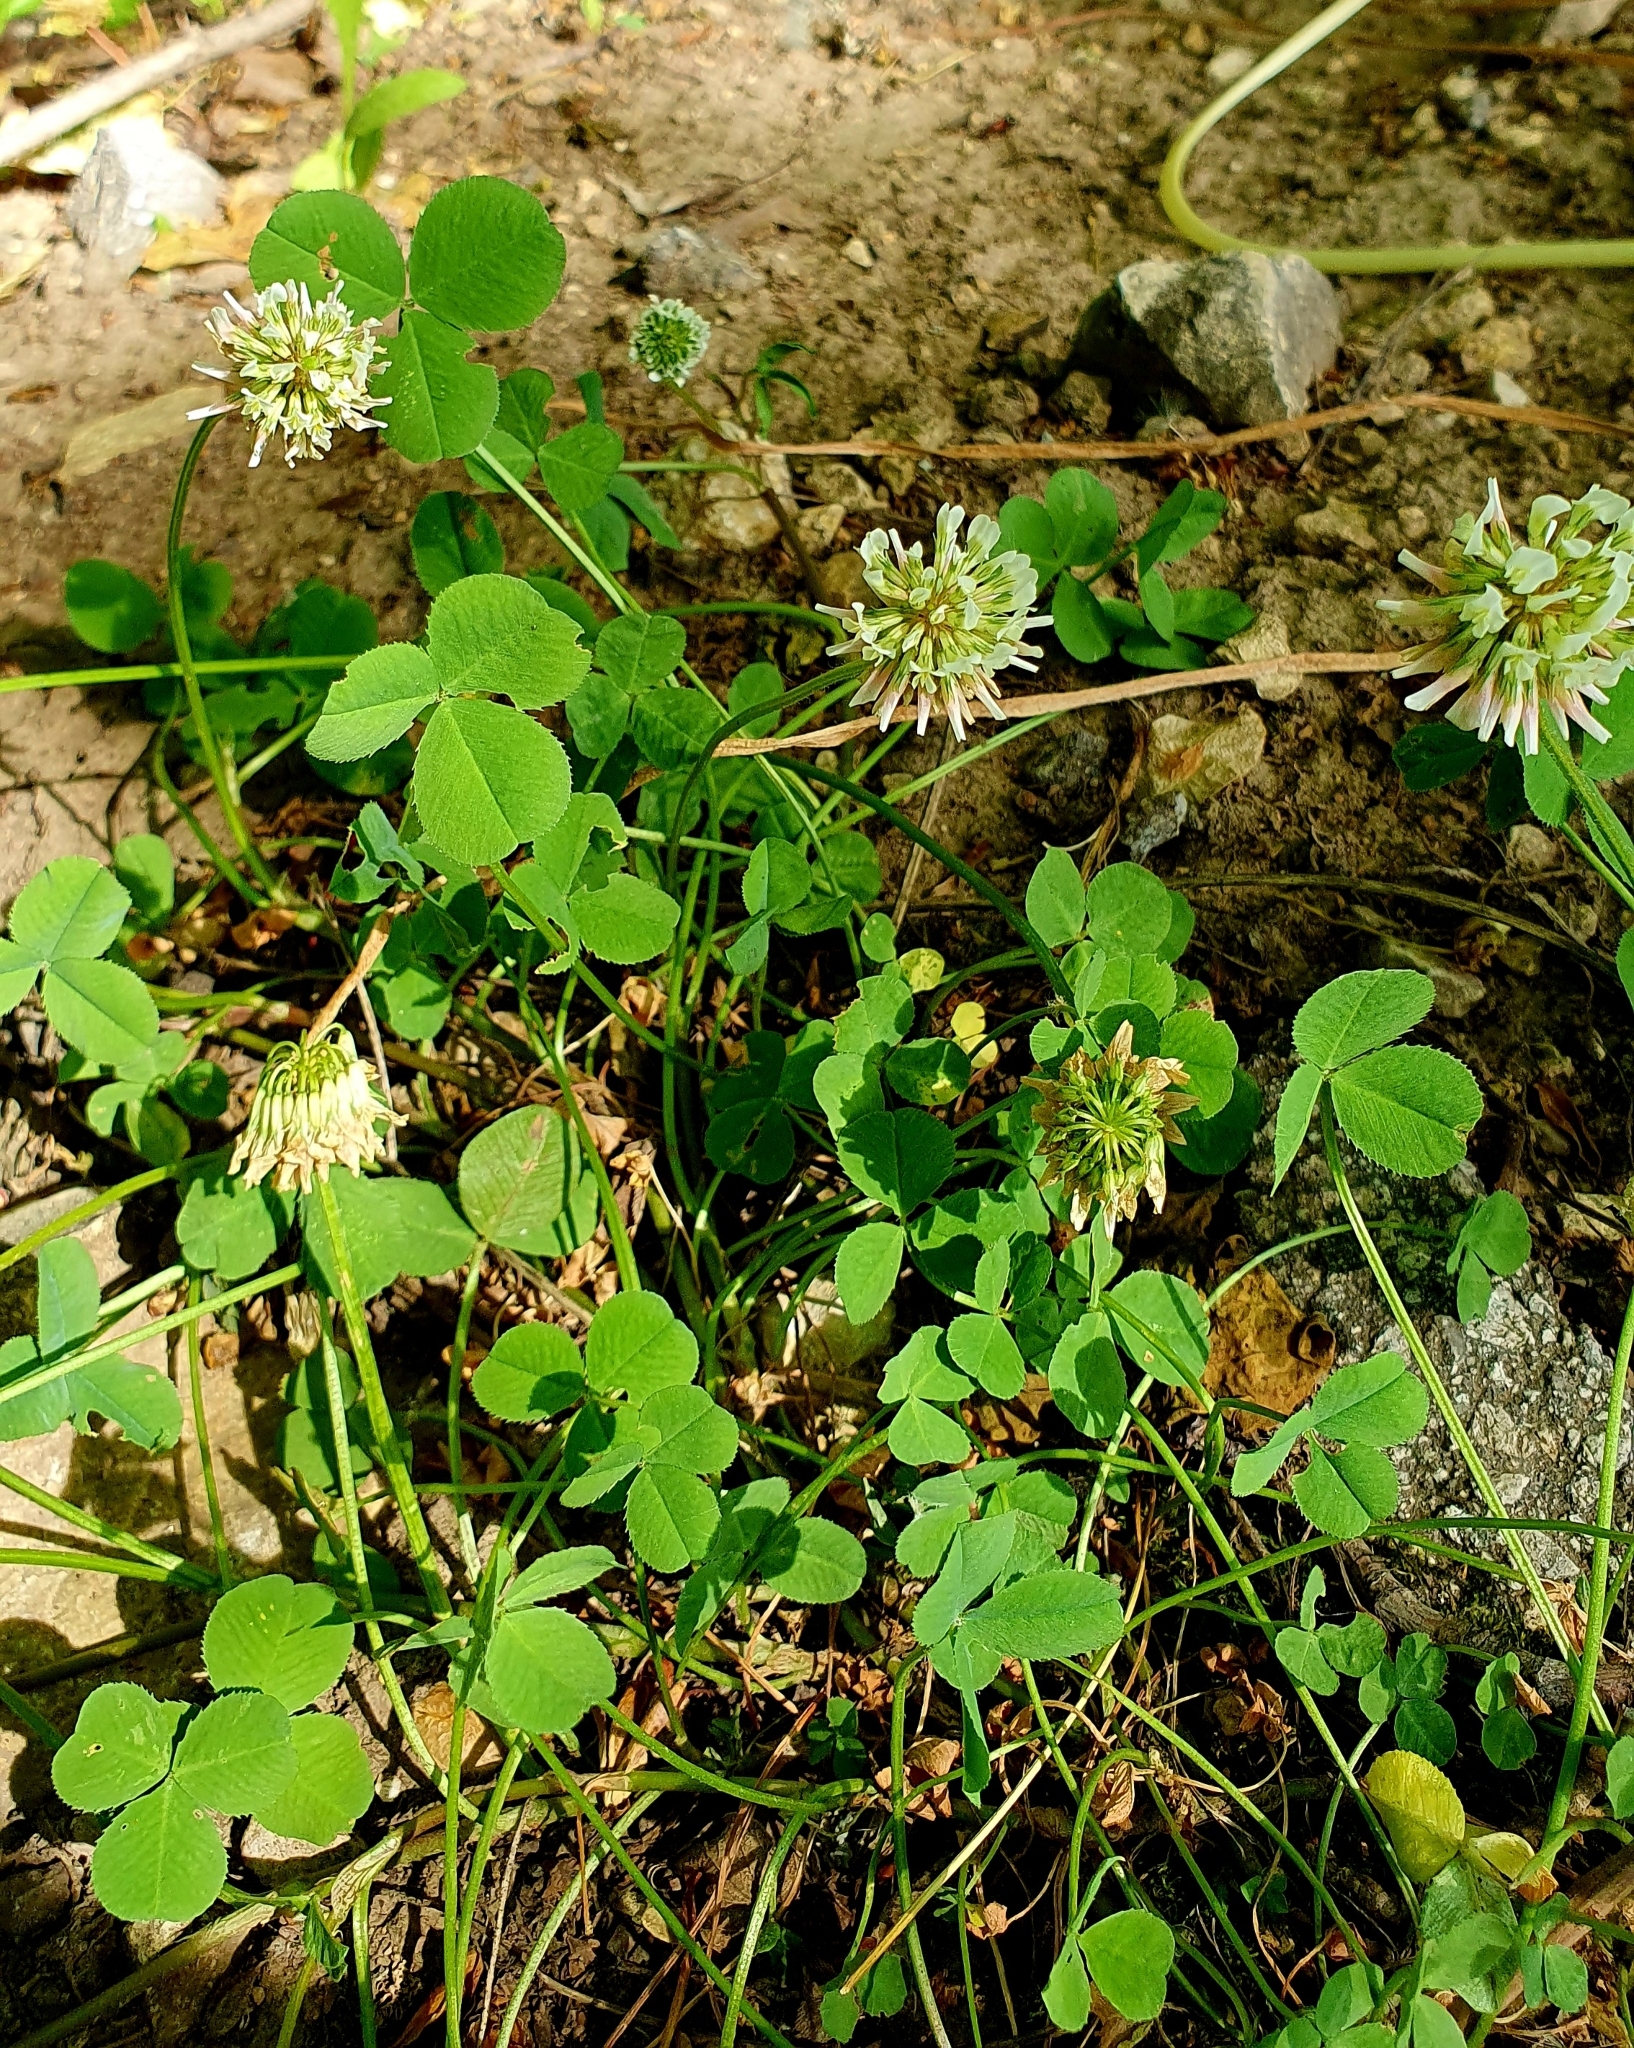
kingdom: Plantae
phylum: Tracheophyta
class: Magnoliopsida
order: Fabales
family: Fabaceae
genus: Trifolium
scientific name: Trifolium repens
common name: White clover
